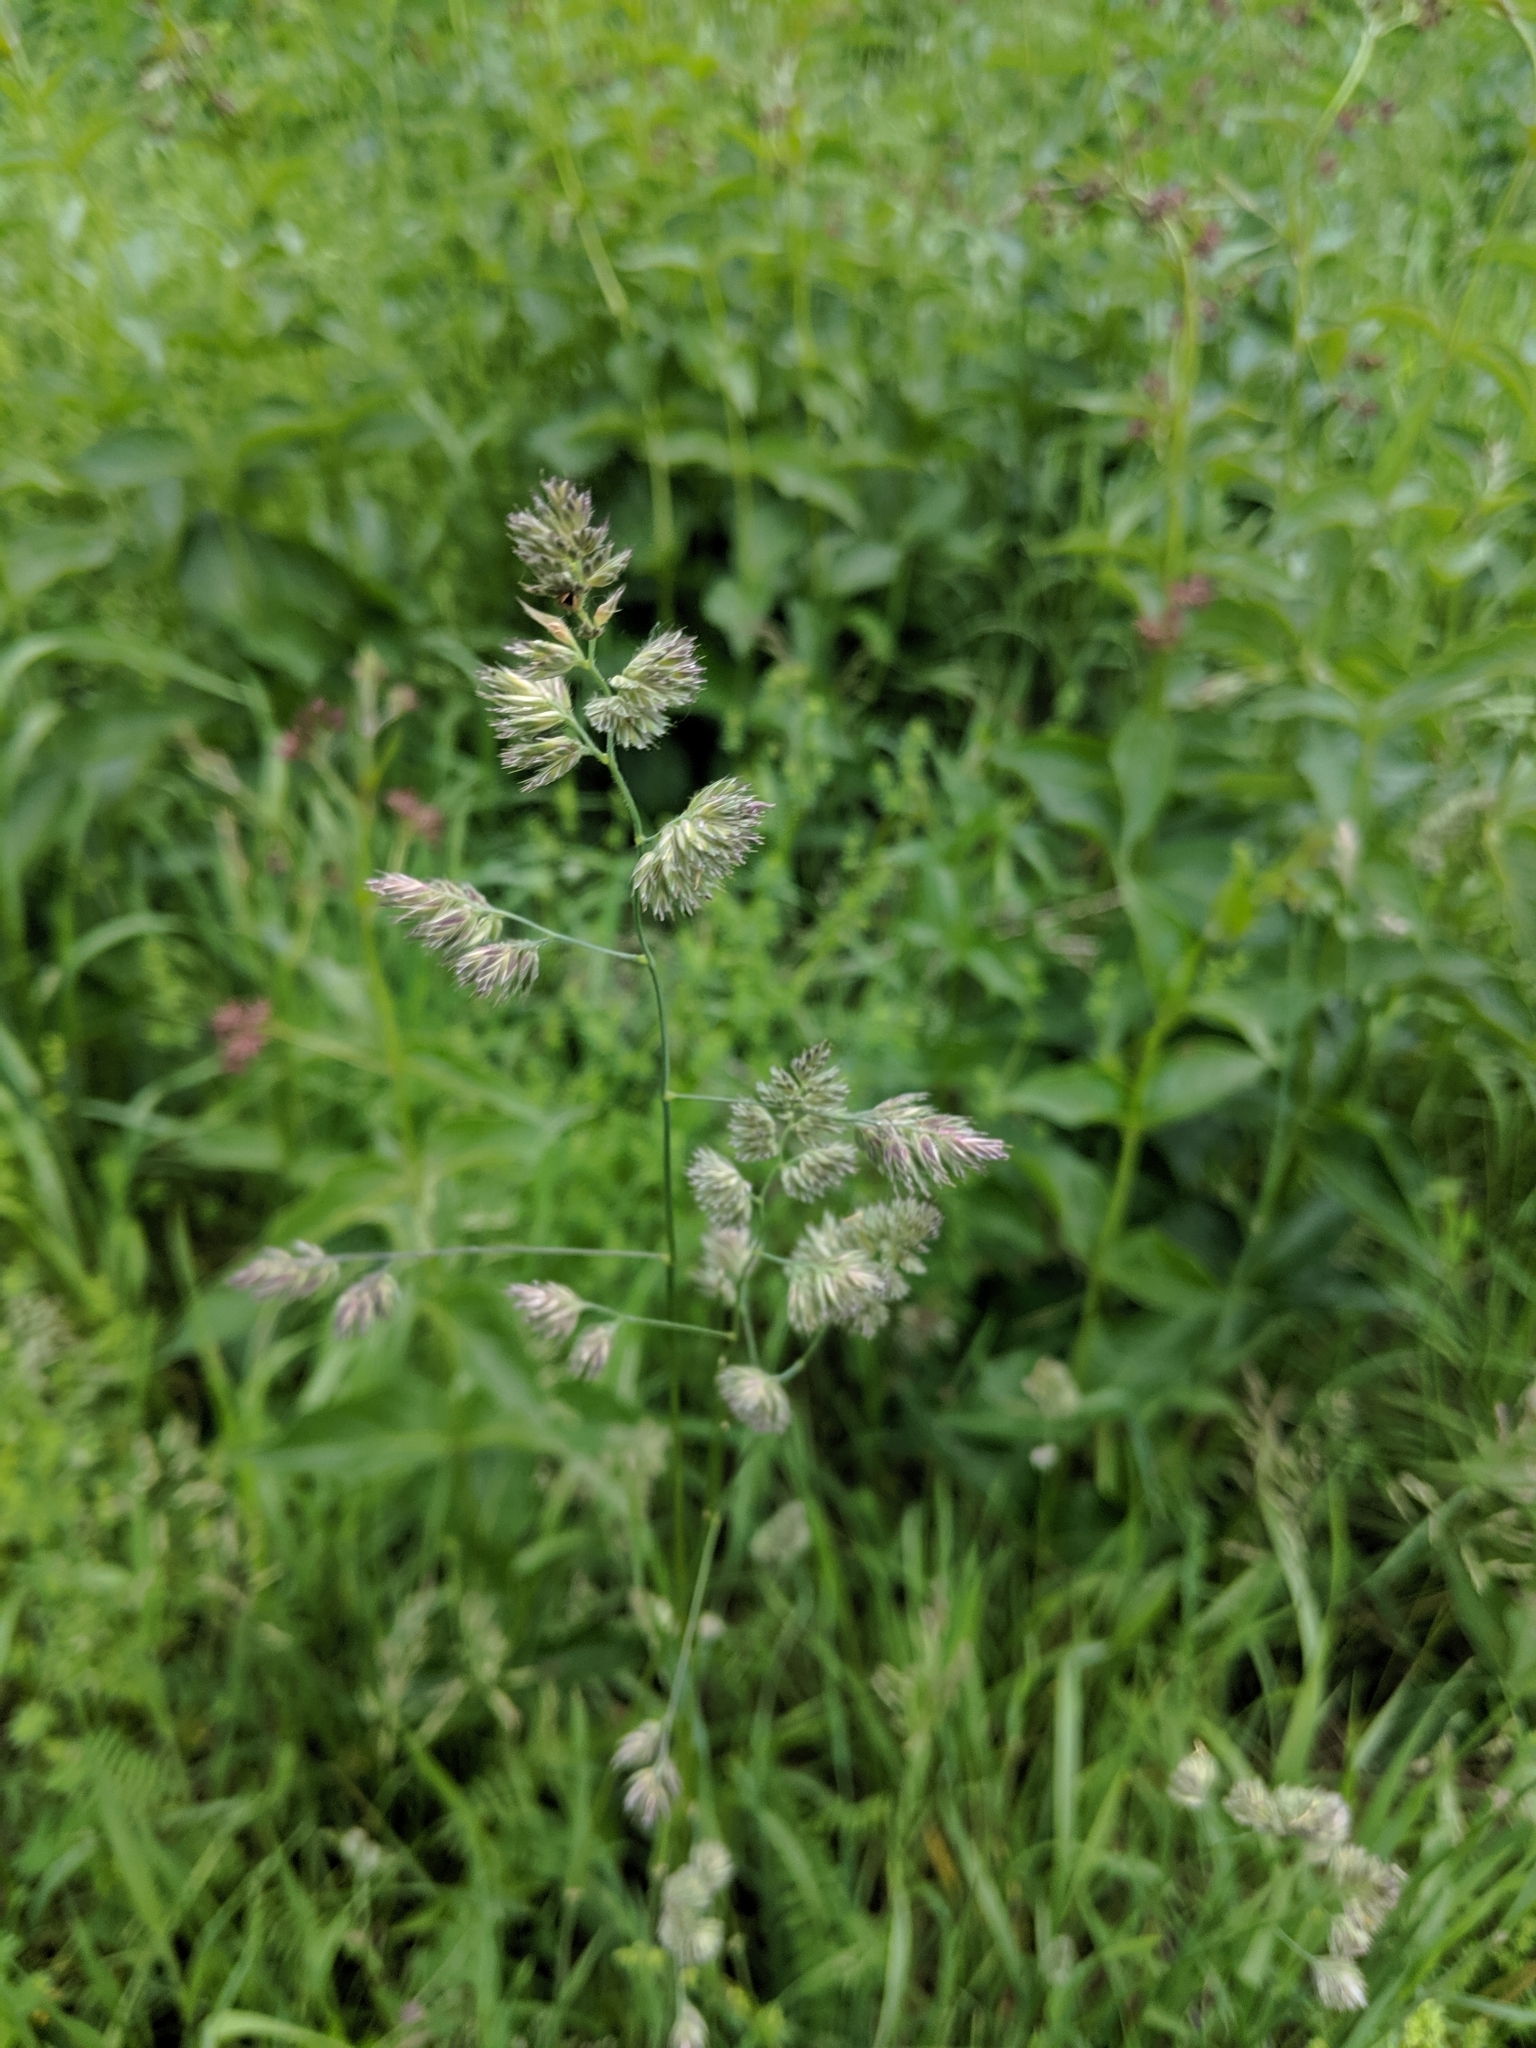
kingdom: Plantae
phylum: Tracheophyta
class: Liliopsida
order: Poales
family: Poaceae
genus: Dactylis
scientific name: Dactylis glomerata
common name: Orchardgrass
